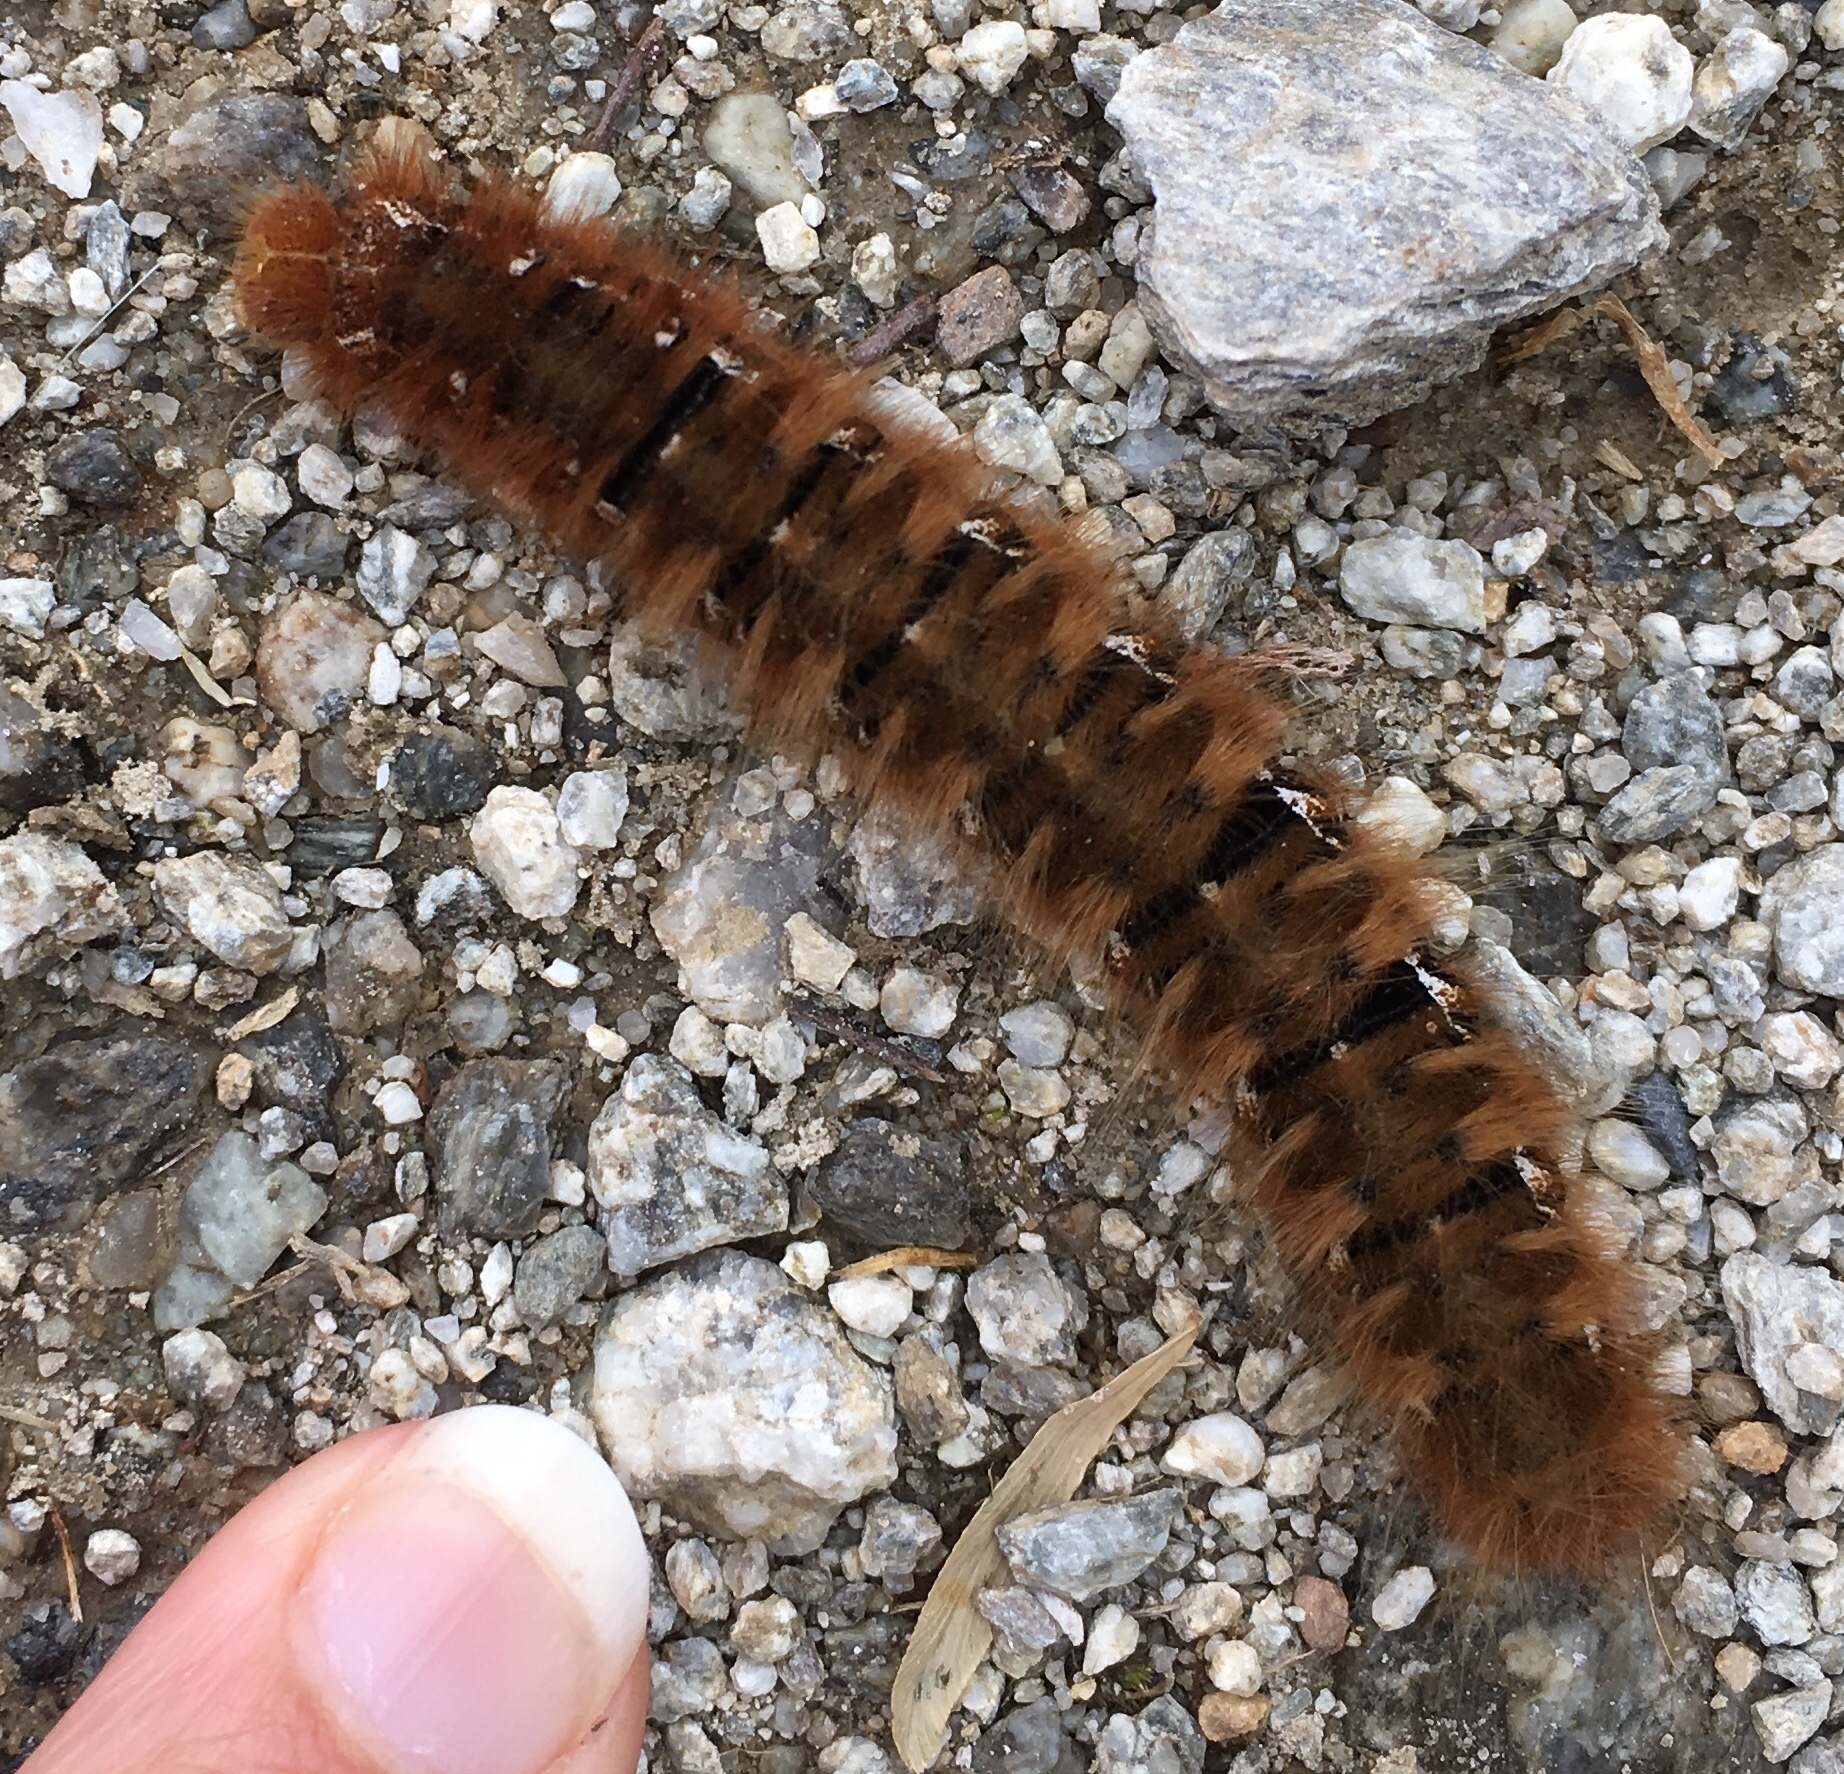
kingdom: Animalia
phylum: Arthropoda
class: Insecta
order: Lepidoptera
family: Lasiocampidae
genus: Lasiocampa
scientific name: Lasiocampa quercus
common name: Oak eggar
